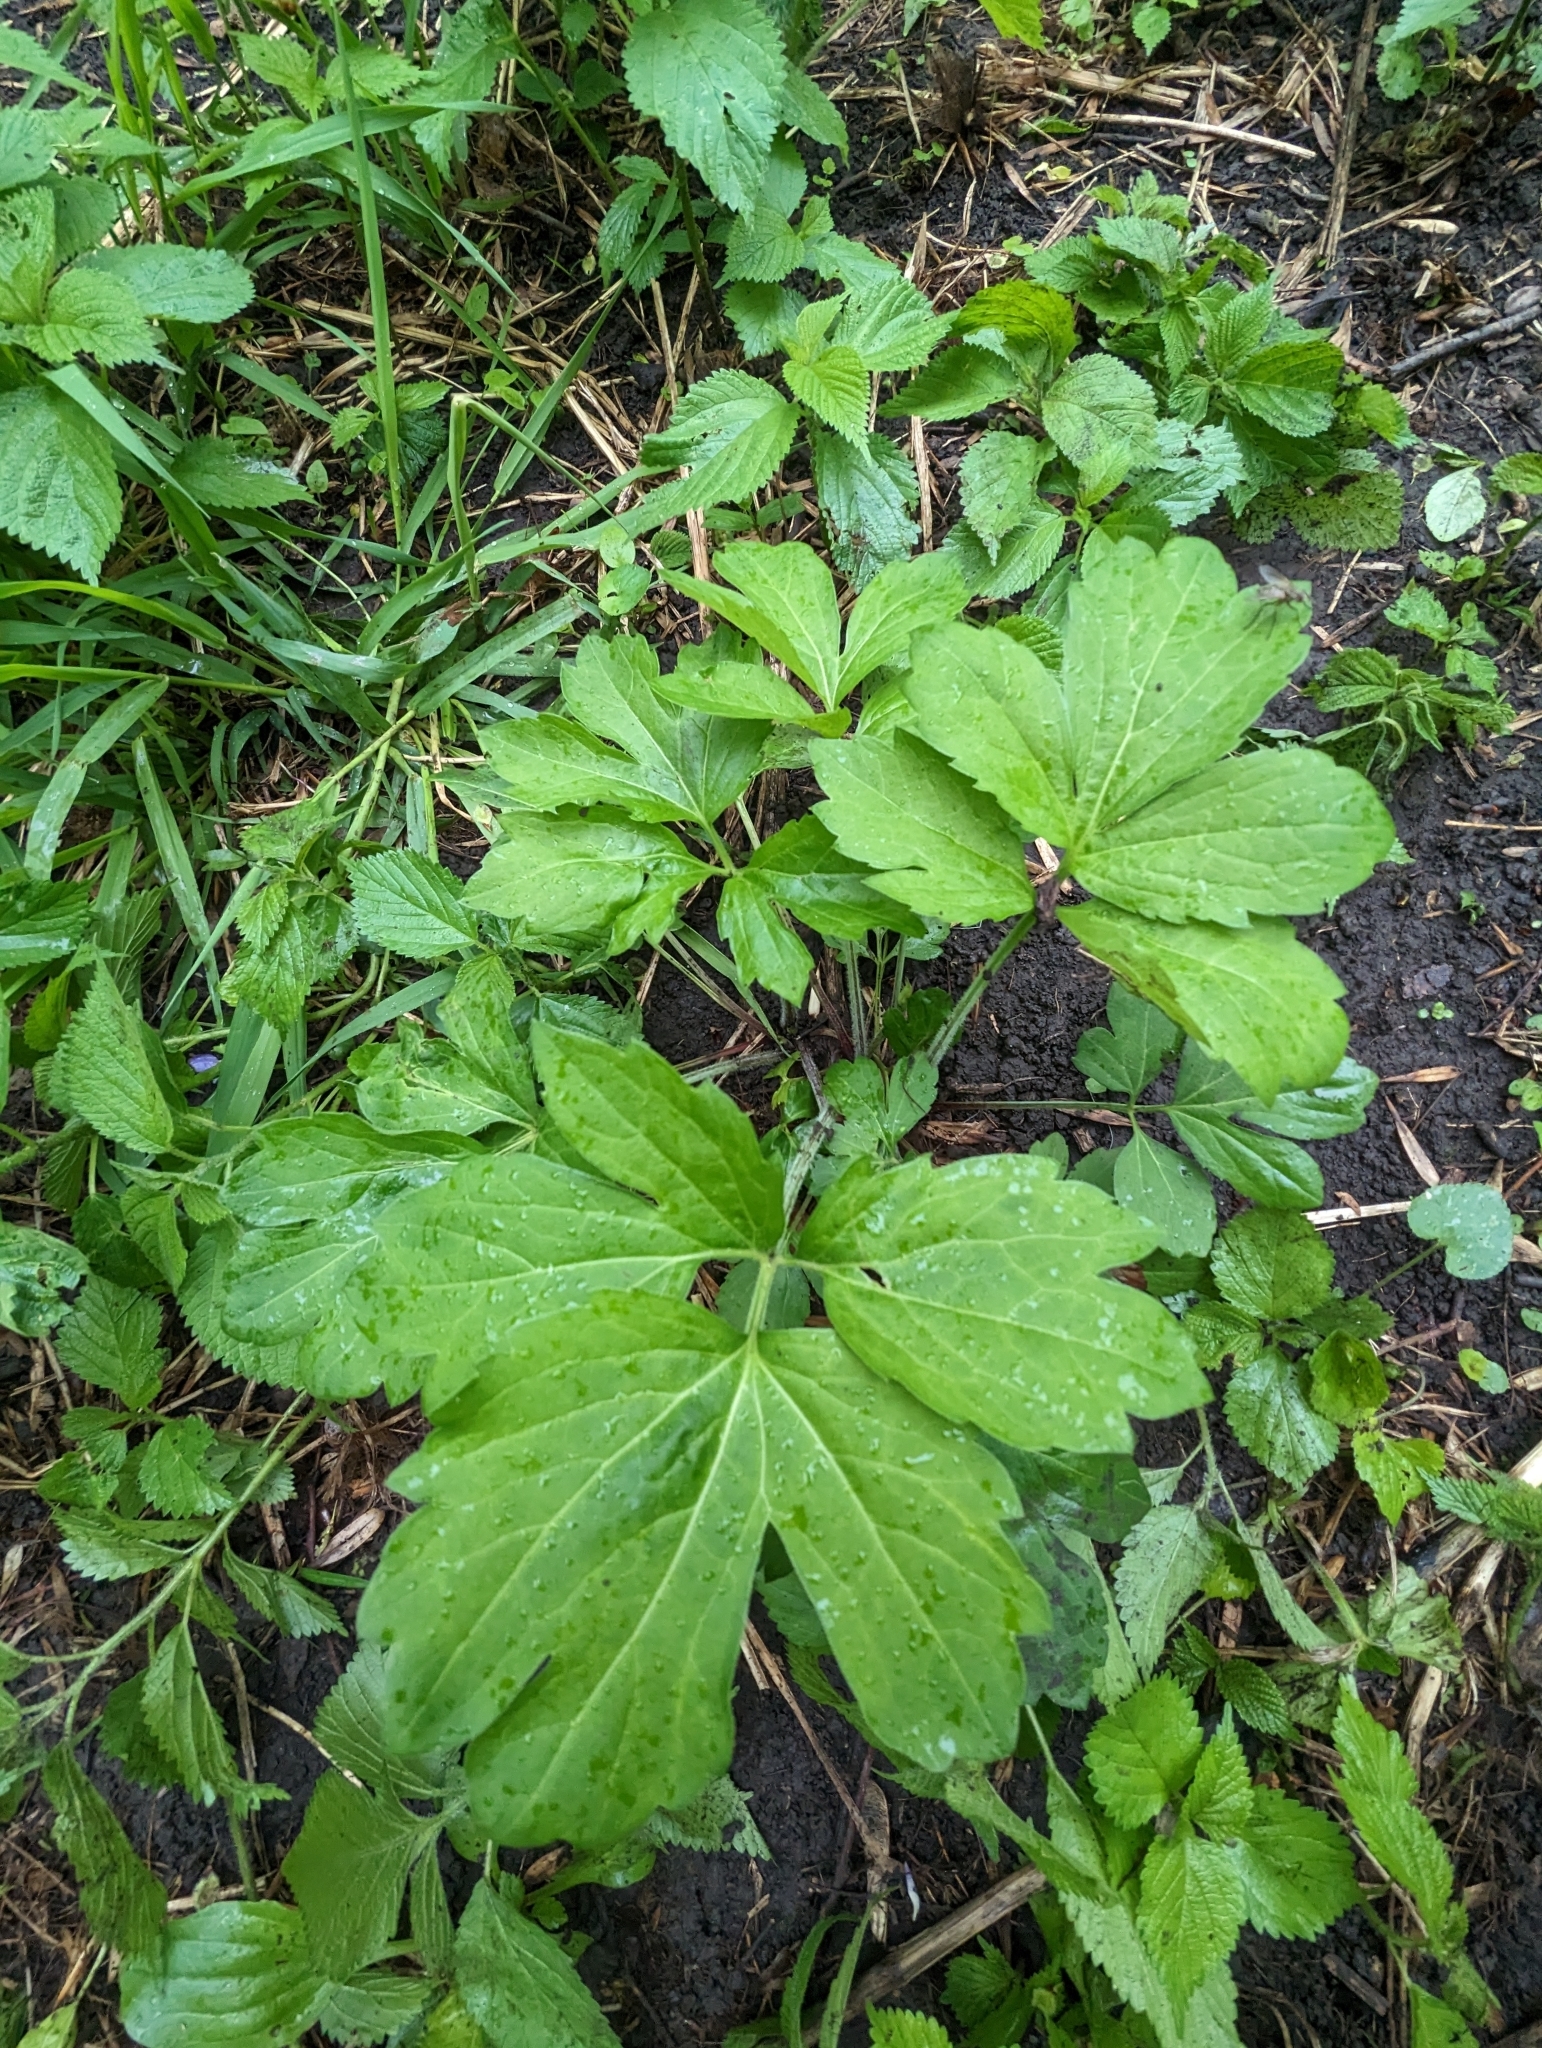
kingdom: Plantae
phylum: Tracheophyta
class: Magnoliopsida
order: Asterales
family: Asteraceae
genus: Rudbeckia
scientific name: Rudbeckia laciniata
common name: Coneflower
